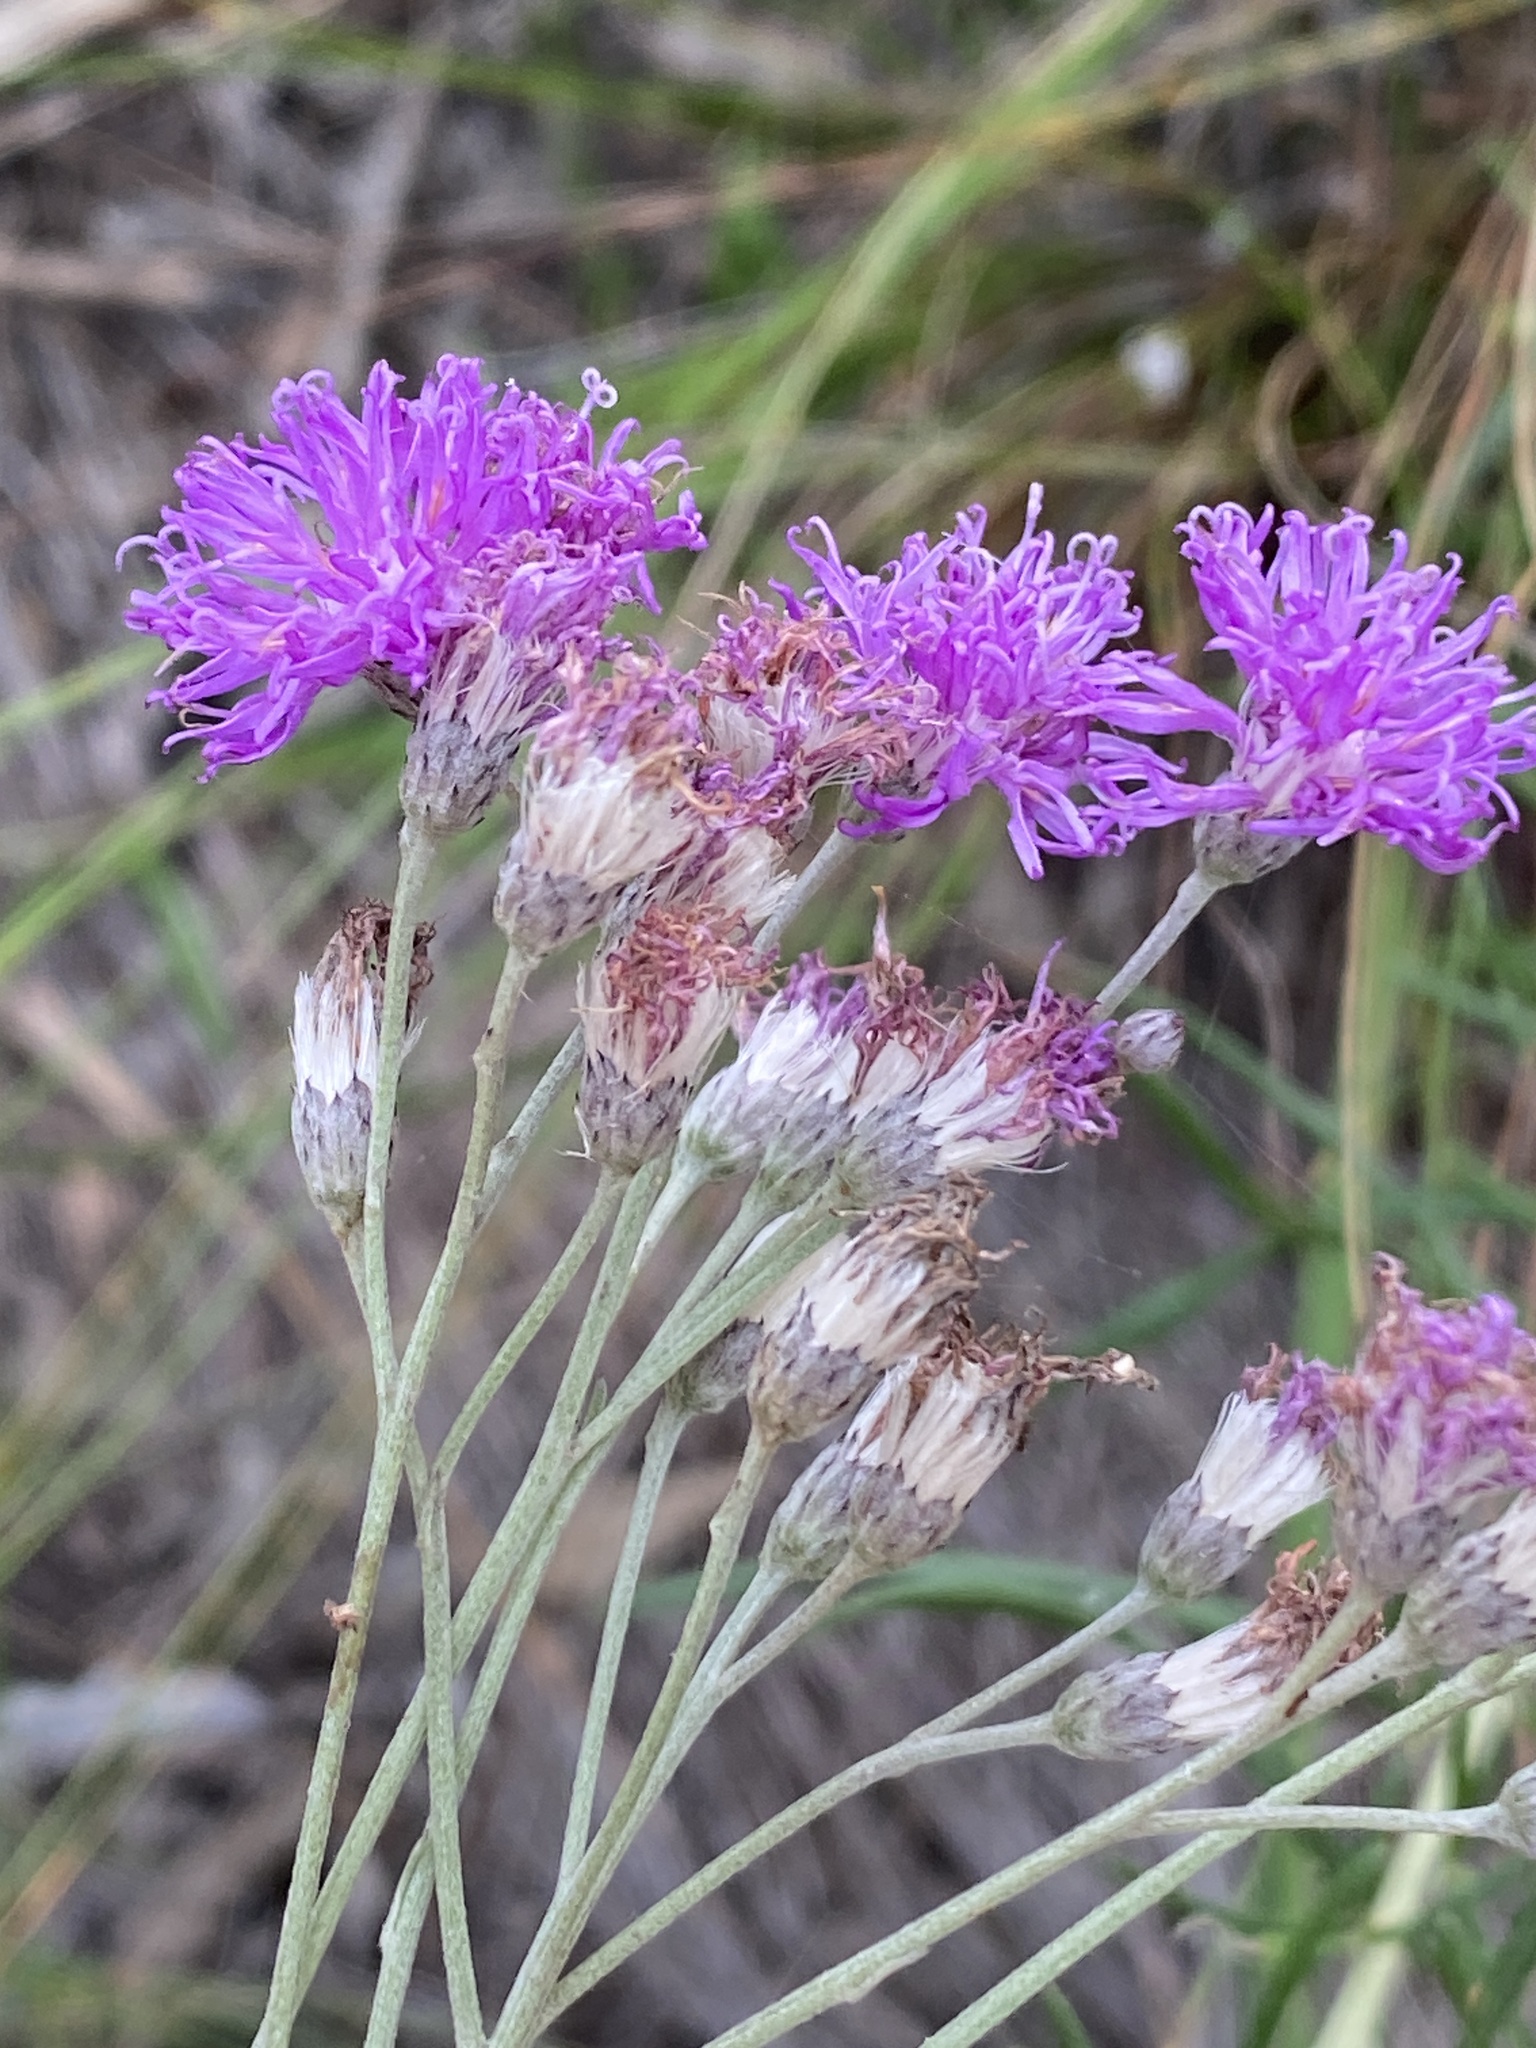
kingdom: Plantae
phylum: Tracheophyta
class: Magnoliopsida
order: Asterales
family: Asteraceae
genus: Hilliardiella
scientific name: Hilliardiella capensis
